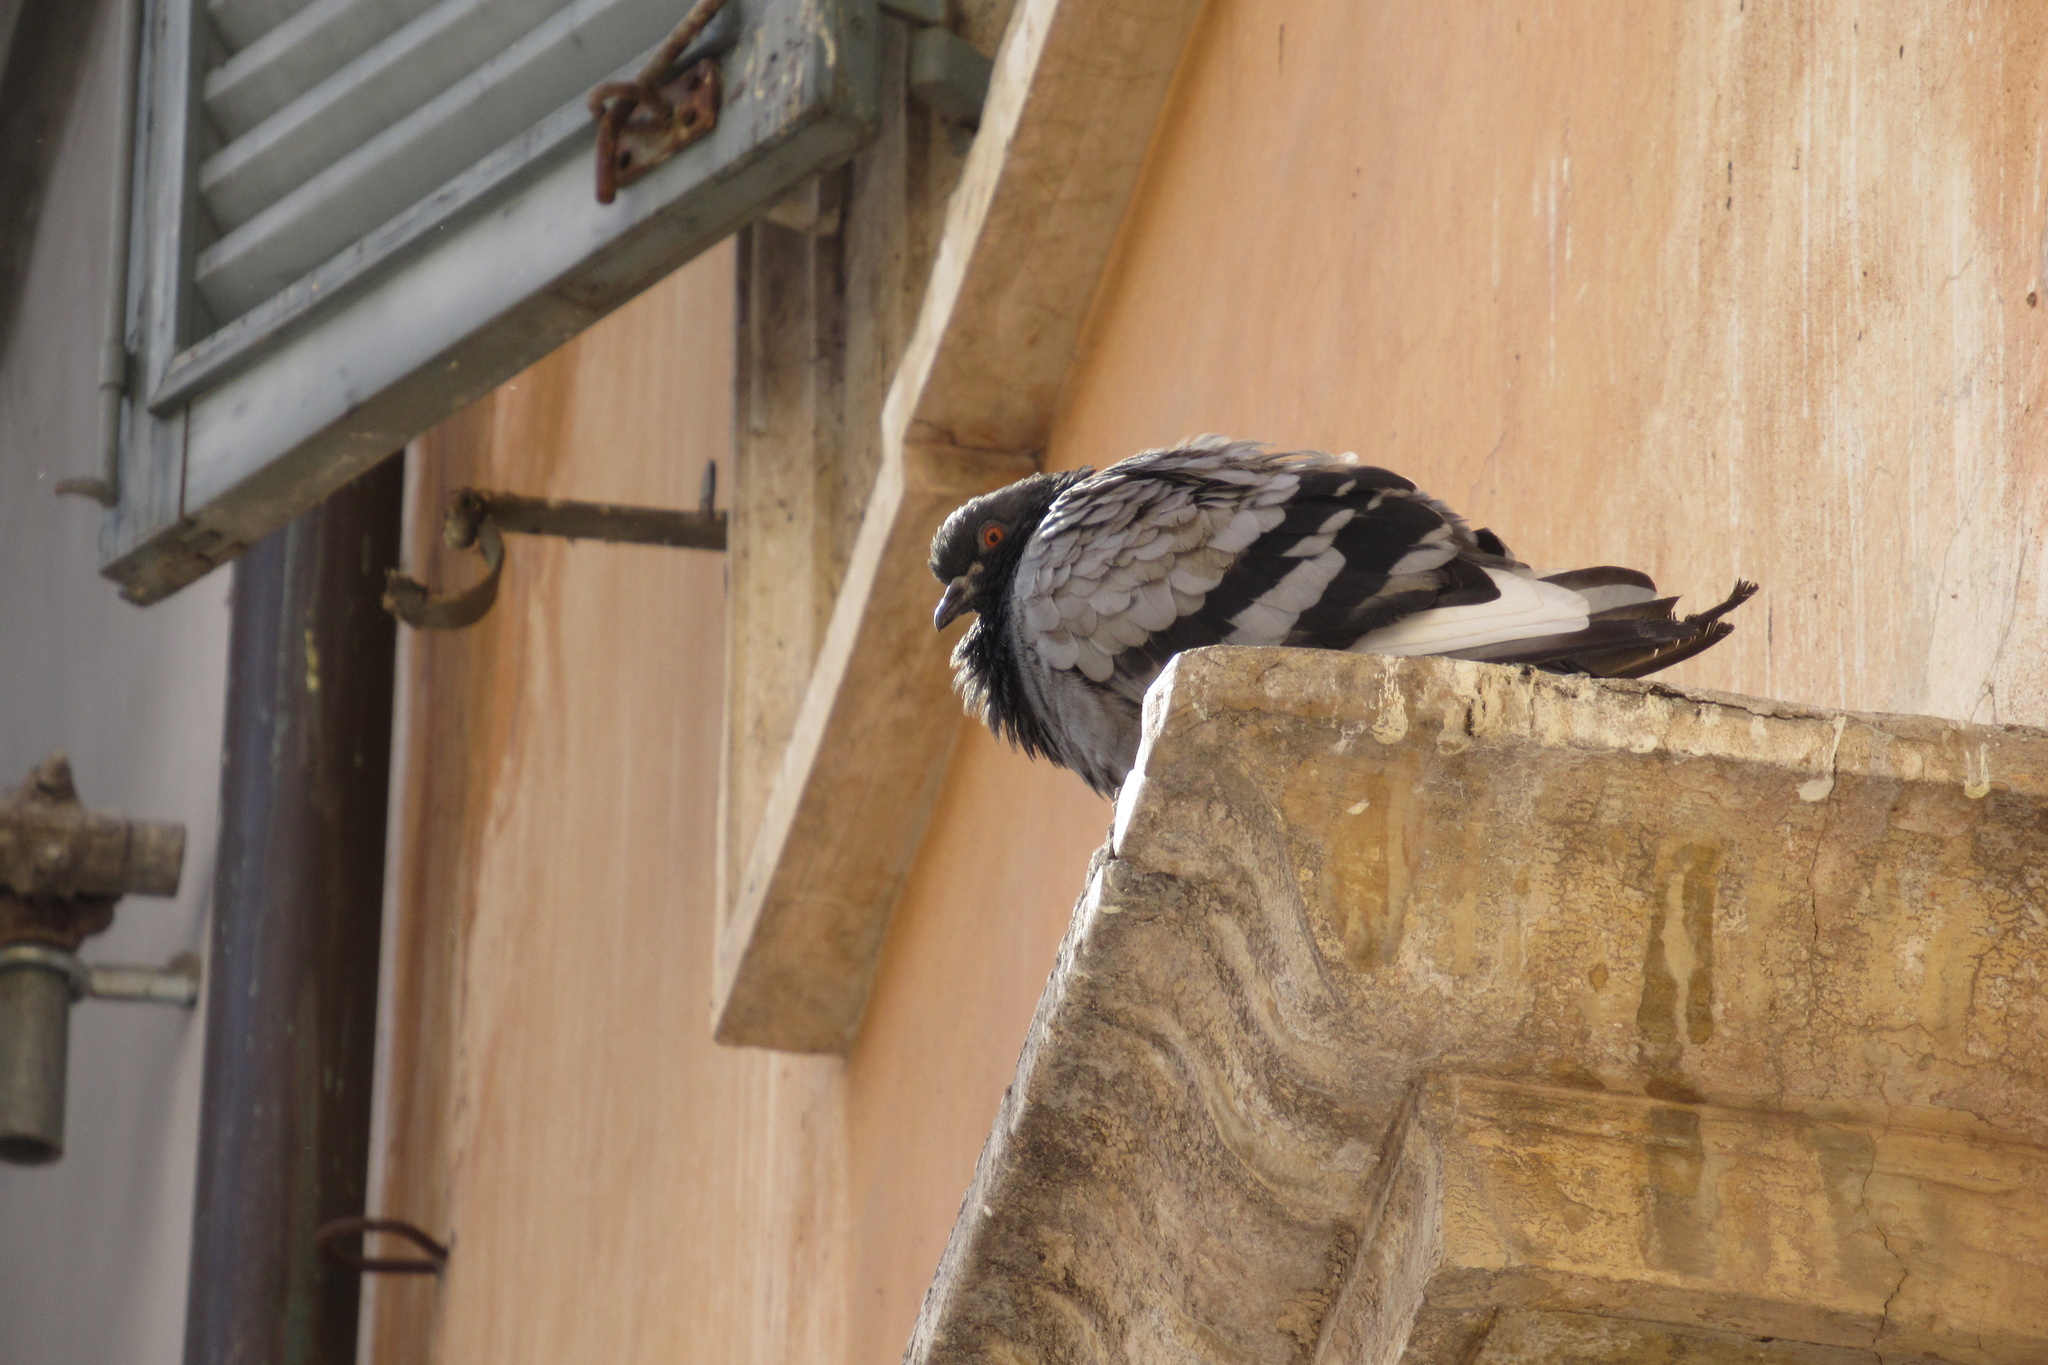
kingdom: Animalia
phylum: Chordata
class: Aves
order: Columbiformes
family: Columbidae
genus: Columba
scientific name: Columba livia
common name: Rock pigeon
